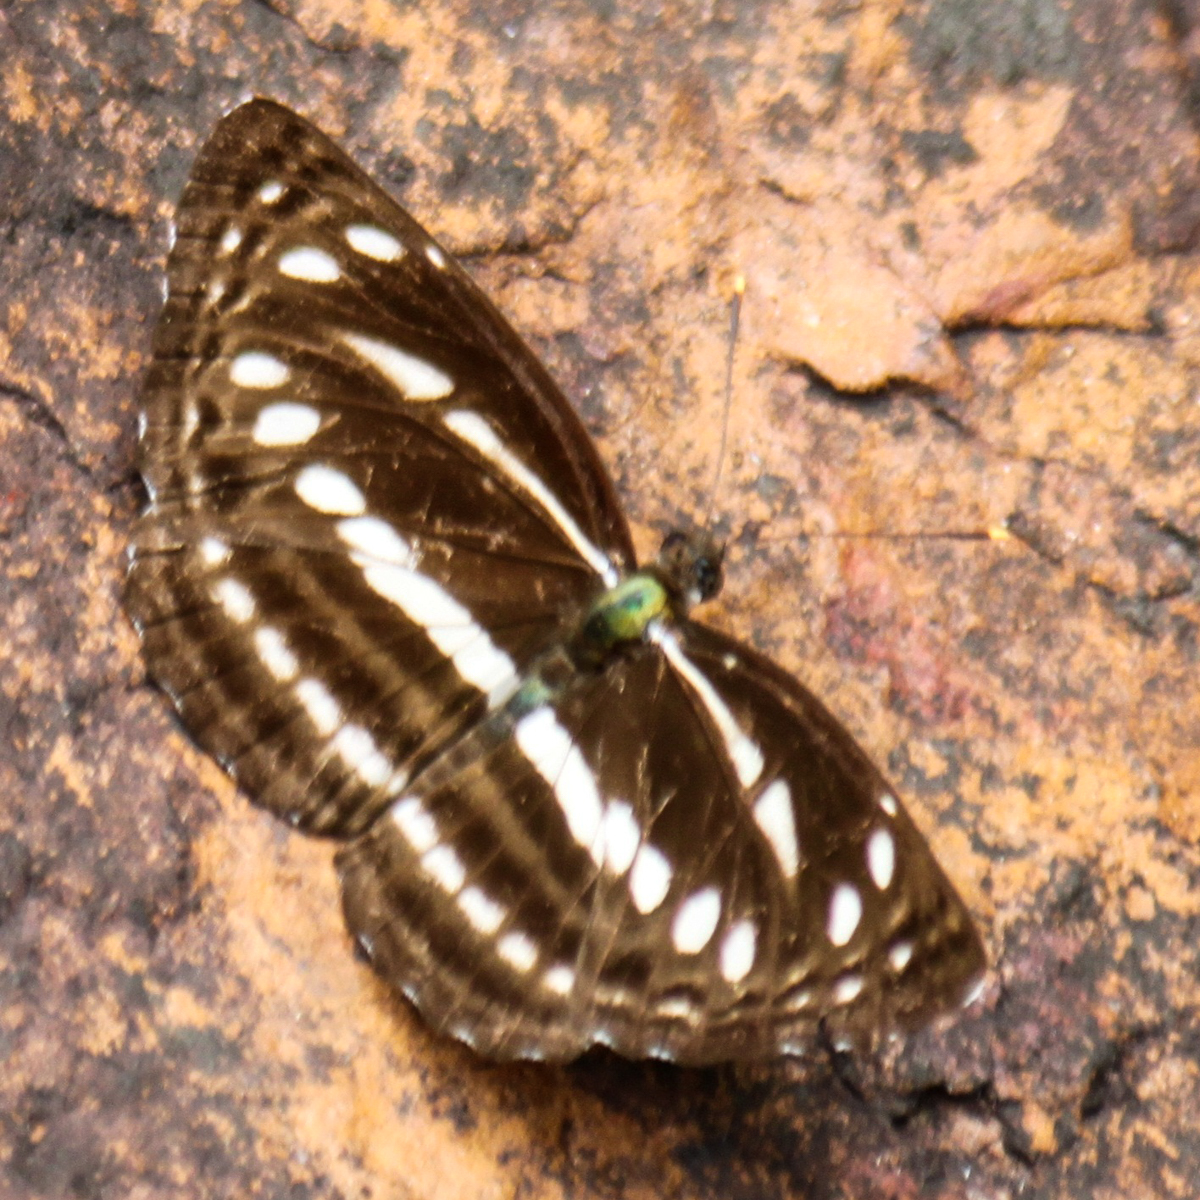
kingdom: Animalia
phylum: Arthropoda
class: Insecta
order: Lepidoptera
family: Nymphalidae
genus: Neptis
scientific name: Neptis cartica
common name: Plain sailer
